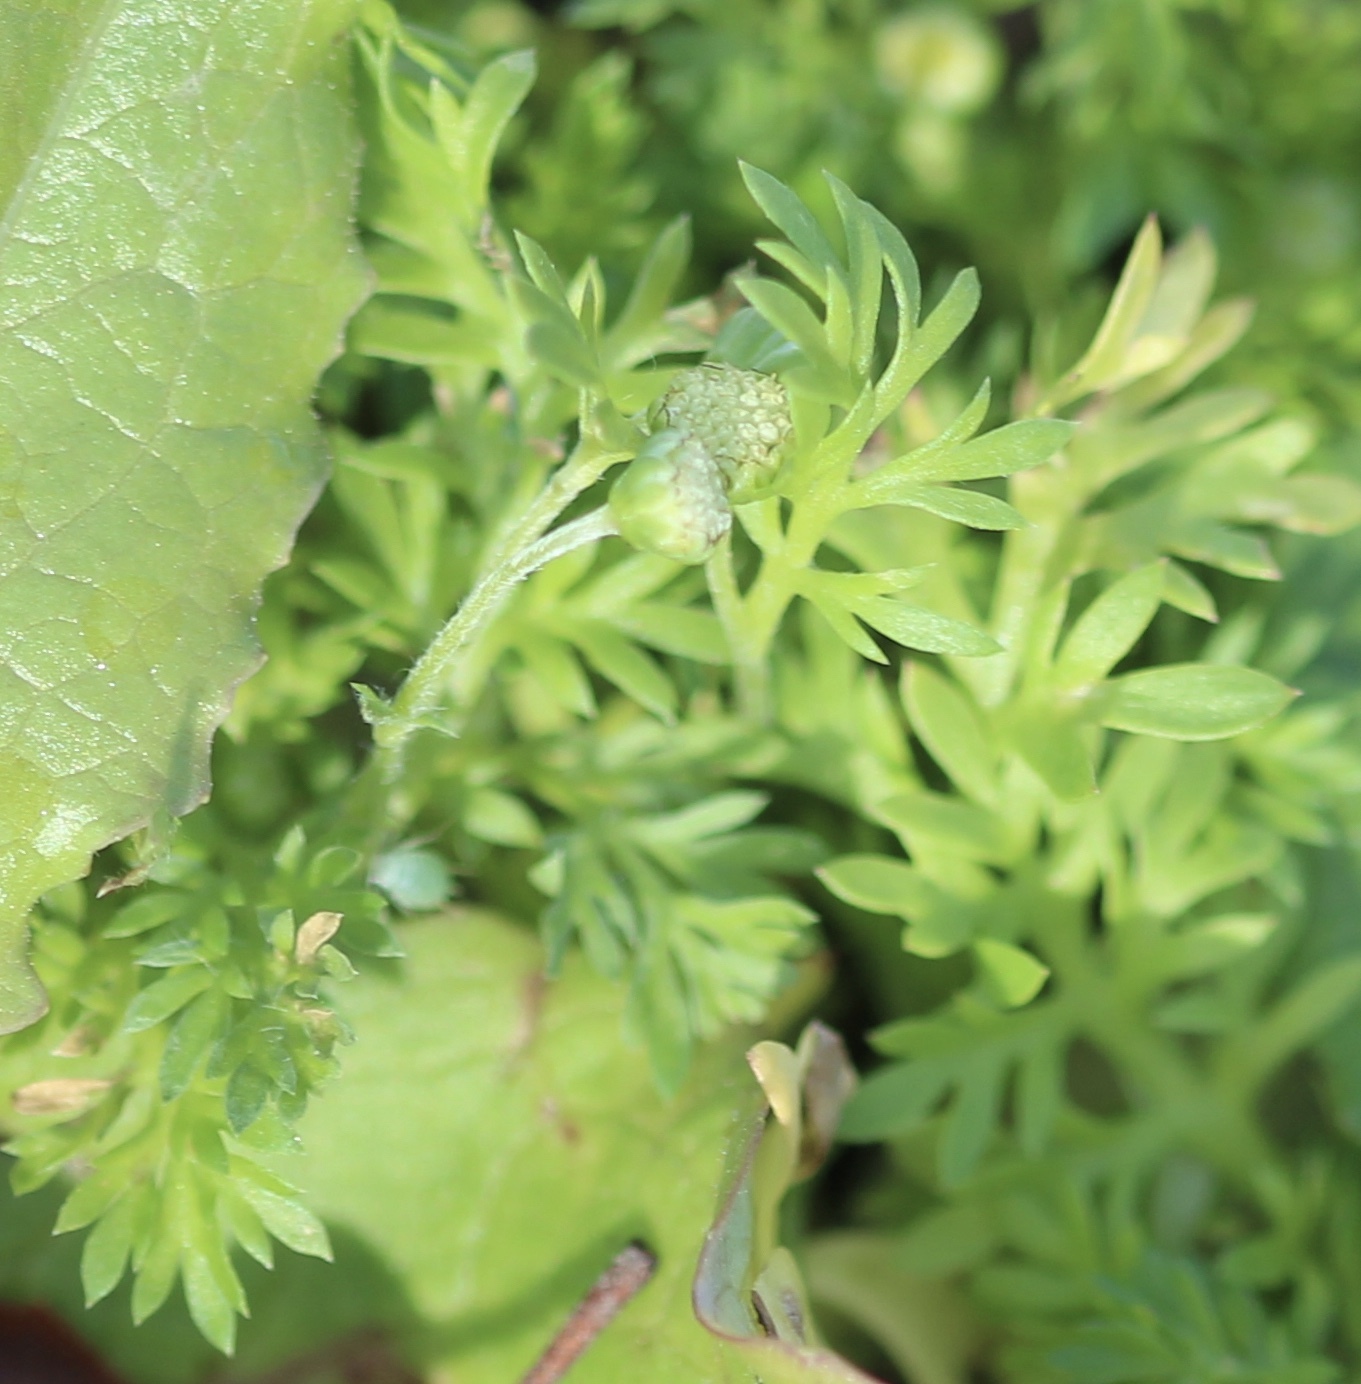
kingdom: Plantae
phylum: Tracheophyta
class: Magnoliopsida
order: Asterales
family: Asteraceae
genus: Cotula
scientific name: Cotula australis
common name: Australian waterbuttons
